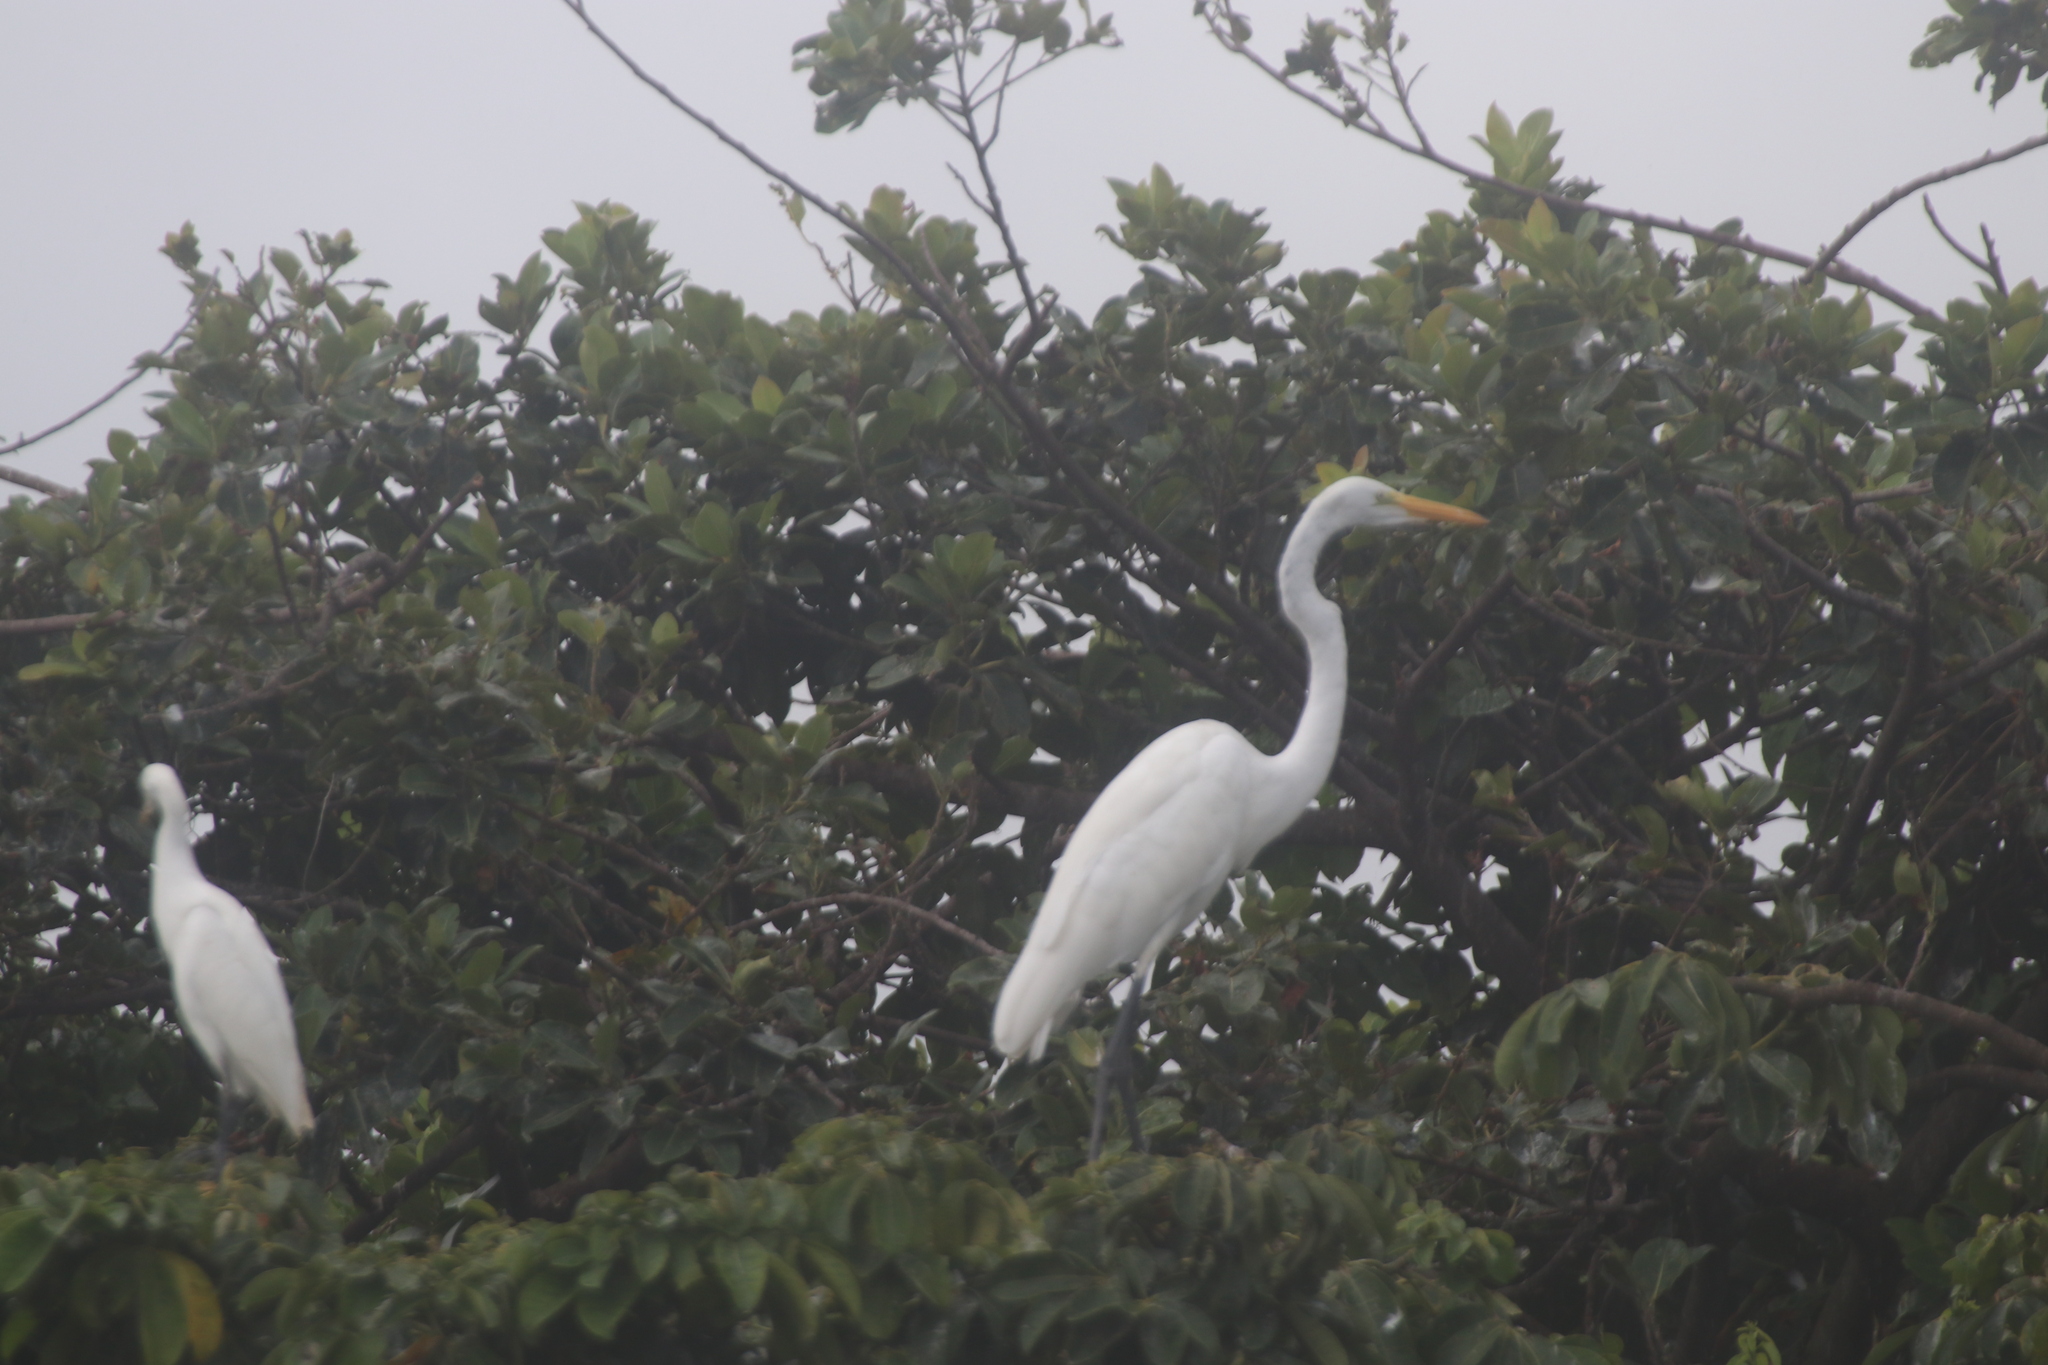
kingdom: Animalia
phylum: Chordata
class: Aves
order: Pelecaniformes
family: Ardeidae
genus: Ardea
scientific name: Ardea alba
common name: Great egret
